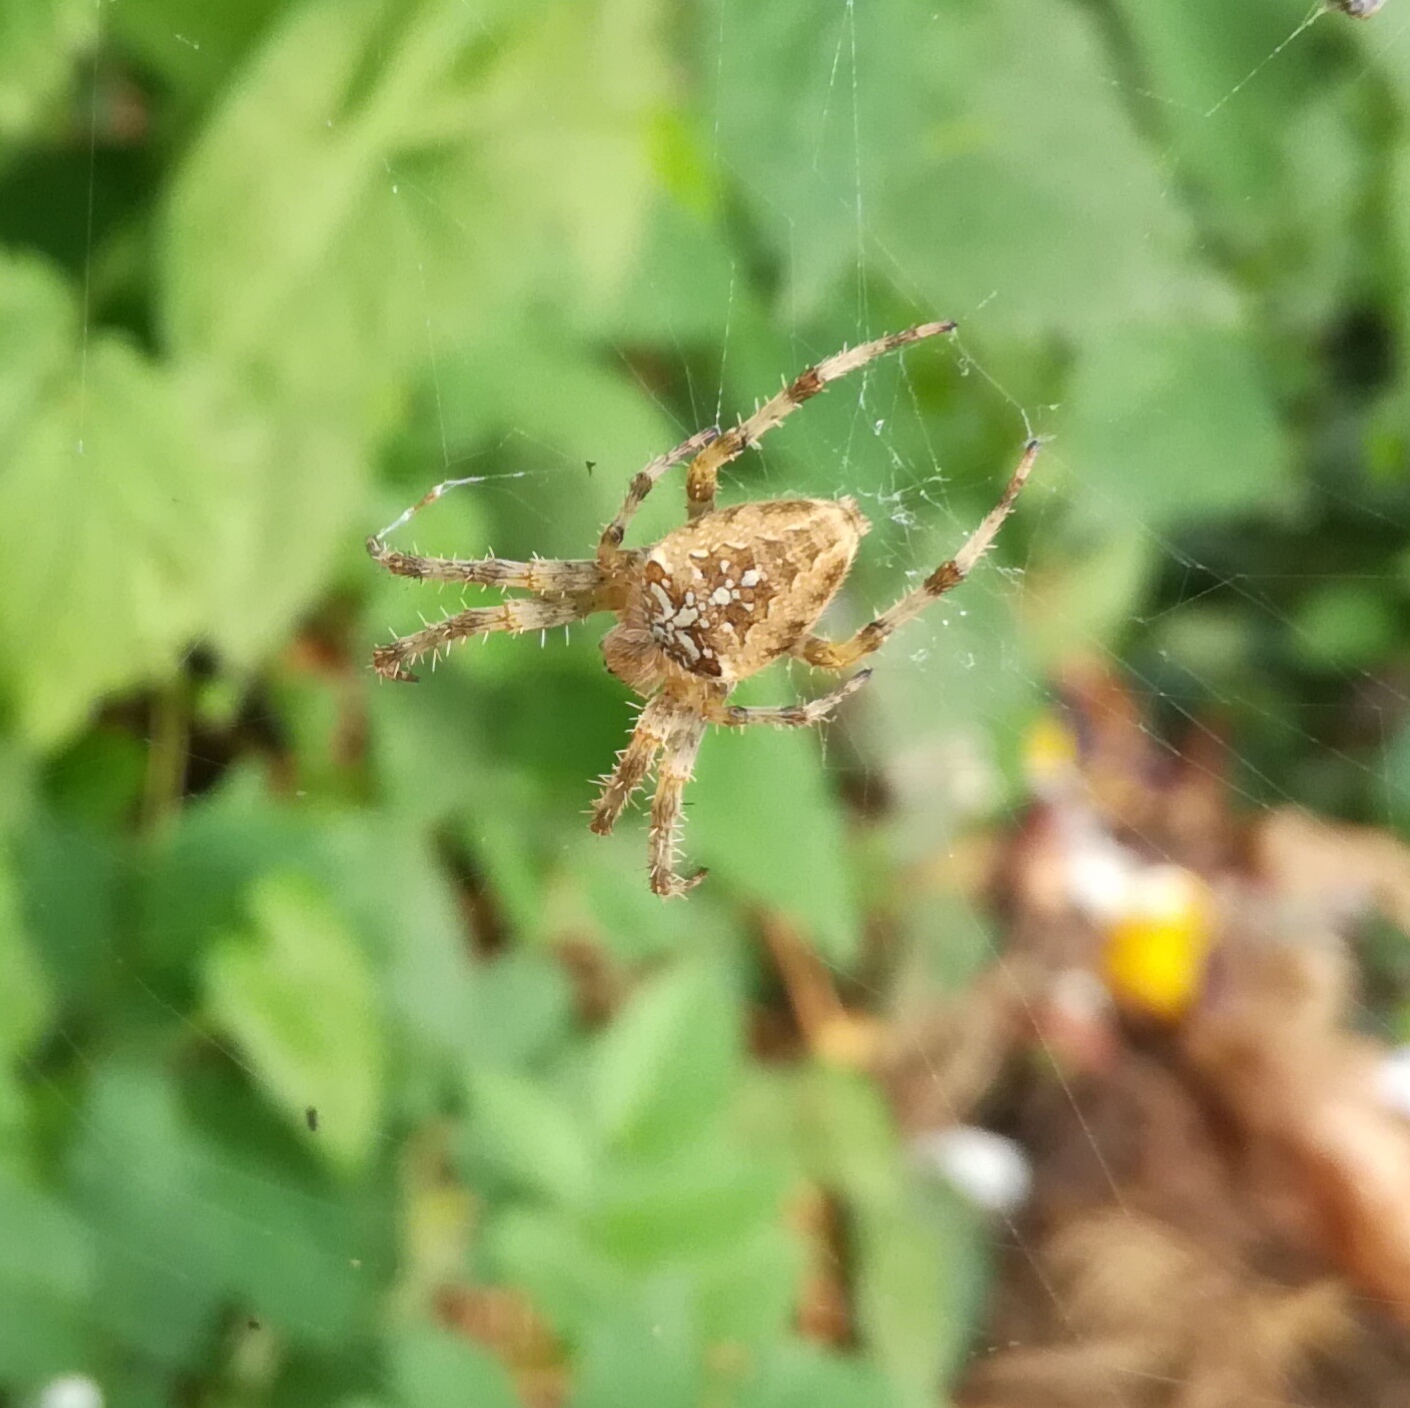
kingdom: Animalia
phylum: Arthropoda
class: Arachnida
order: Araneae
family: Araneidae
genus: Araneus
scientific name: Araneus diadematus
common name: Cross orbweaver
